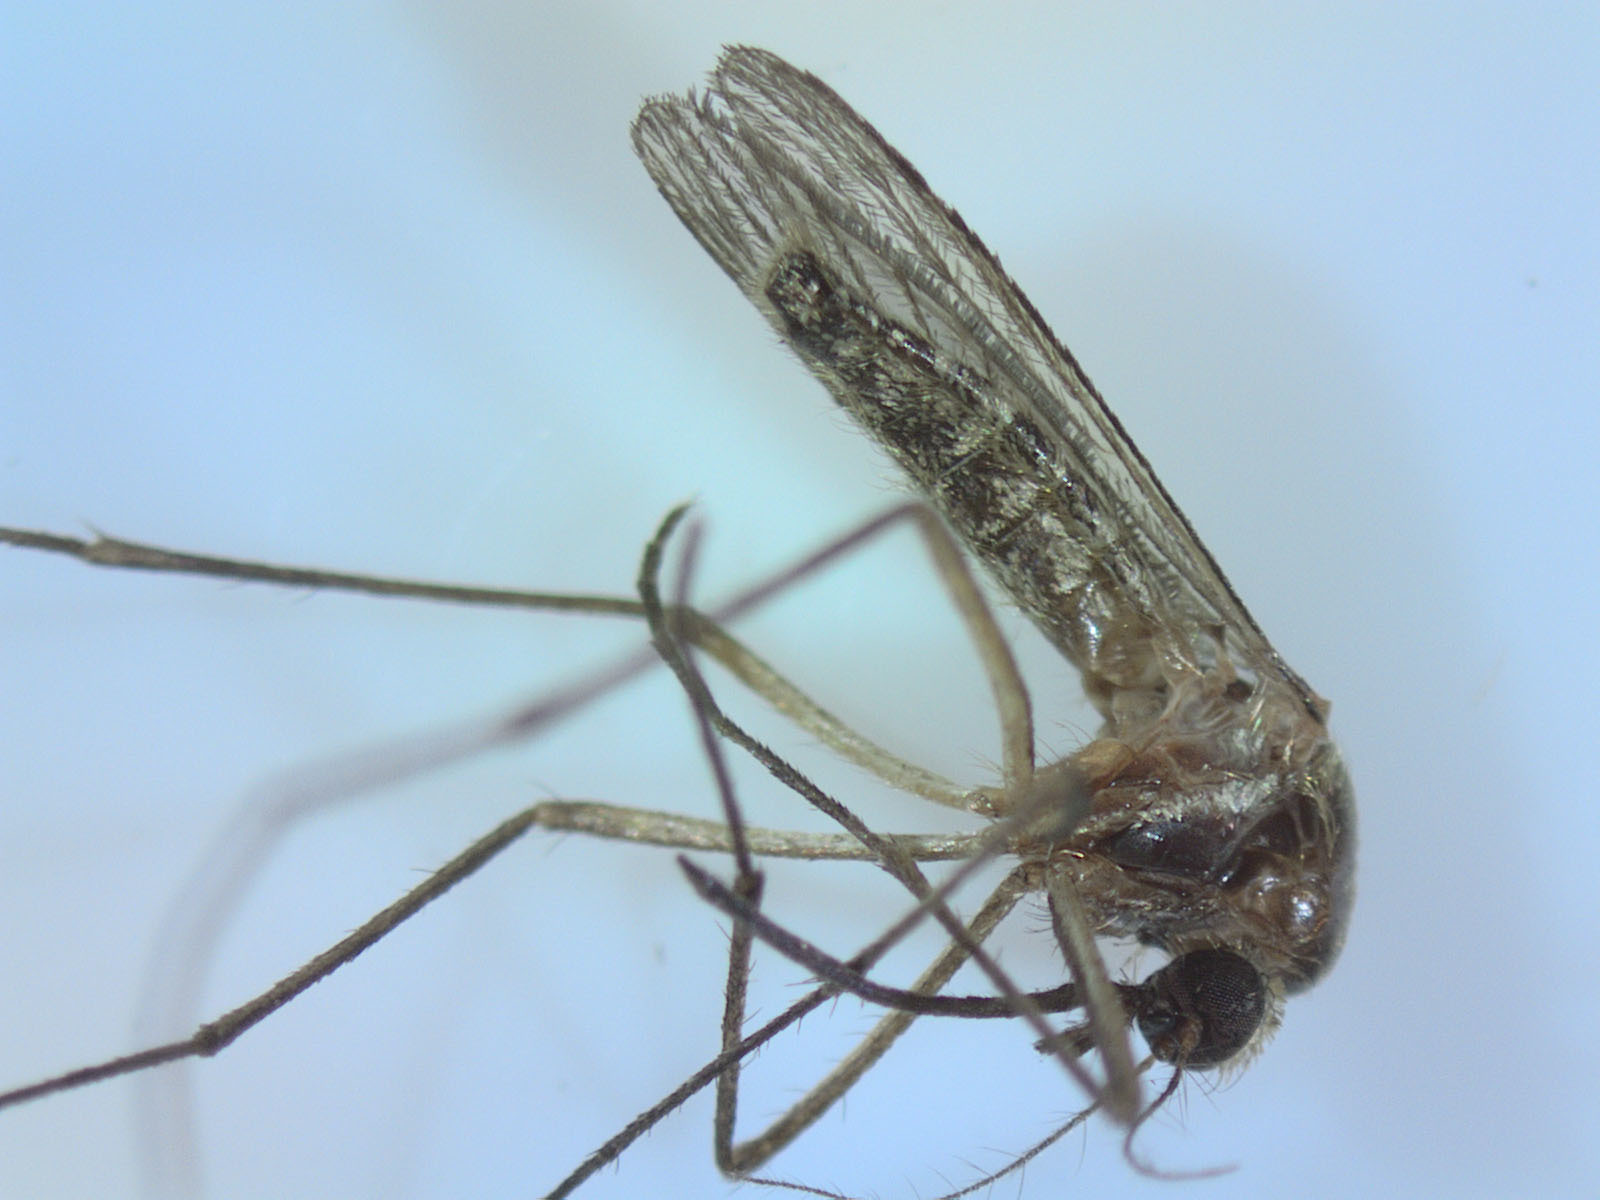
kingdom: Animalia
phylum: Arthropoda
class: Insecta
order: Diptera
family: Culicidae
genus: Coquillettidia
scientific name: Coquillettidia tenuipalpis
